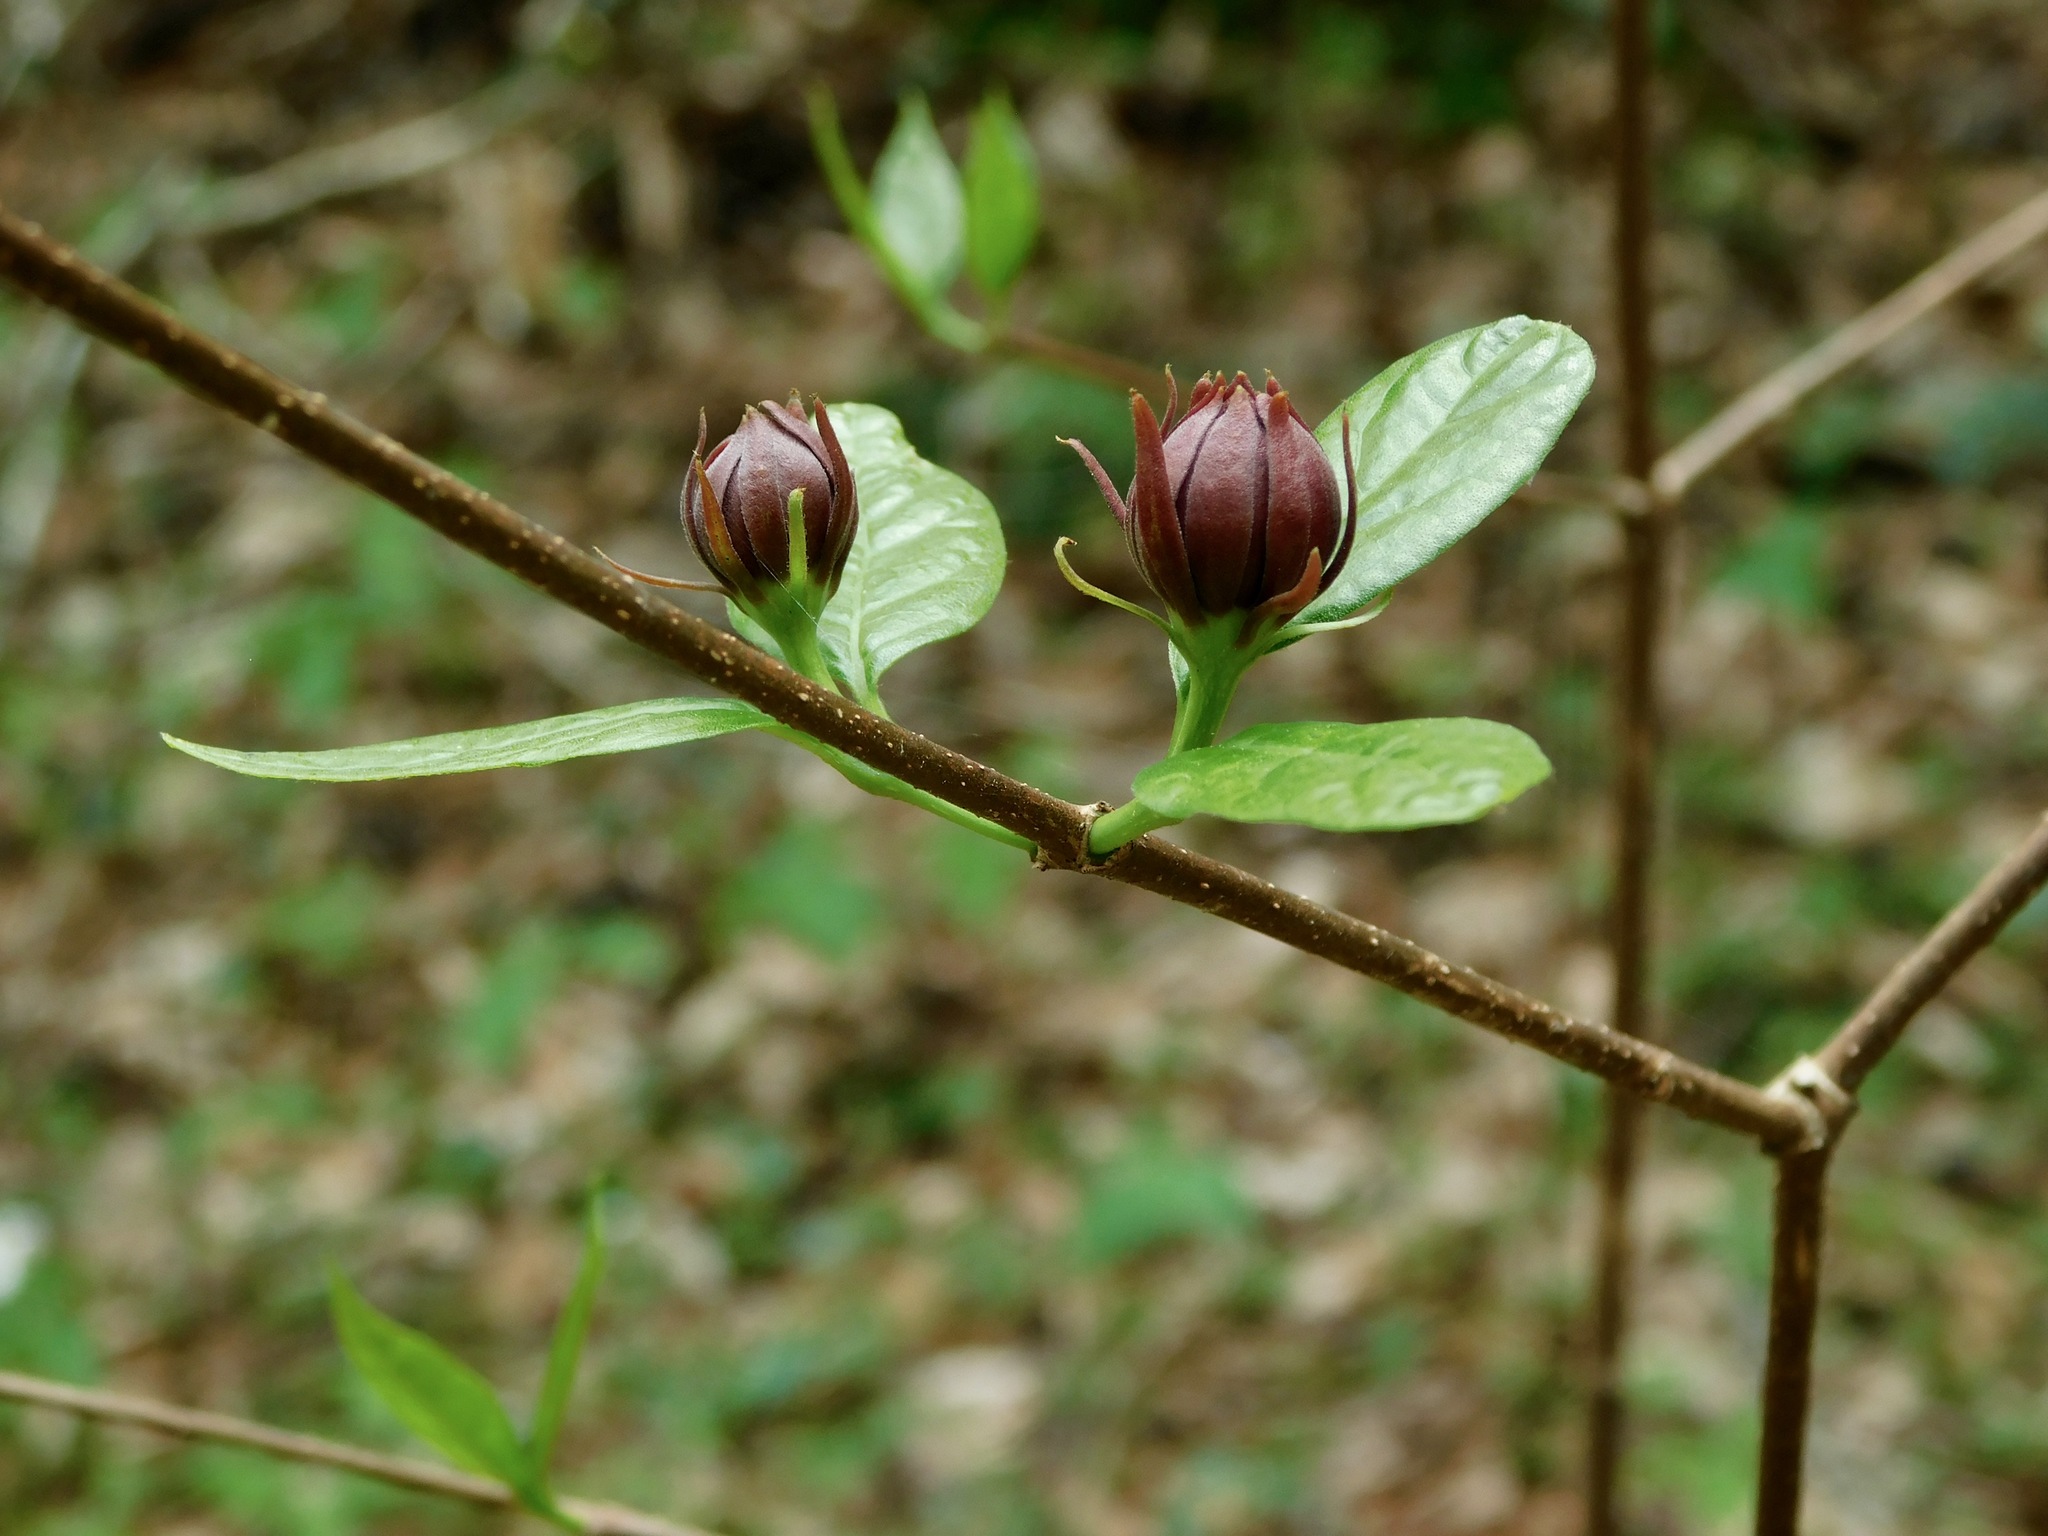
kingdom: Plantae
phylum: Tracheophyta
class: Magnoliopsida
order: Laurales
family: Calycanthaceae
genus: Calycanthus
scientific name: Calycanthus floridus
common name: Carolina-allspice
